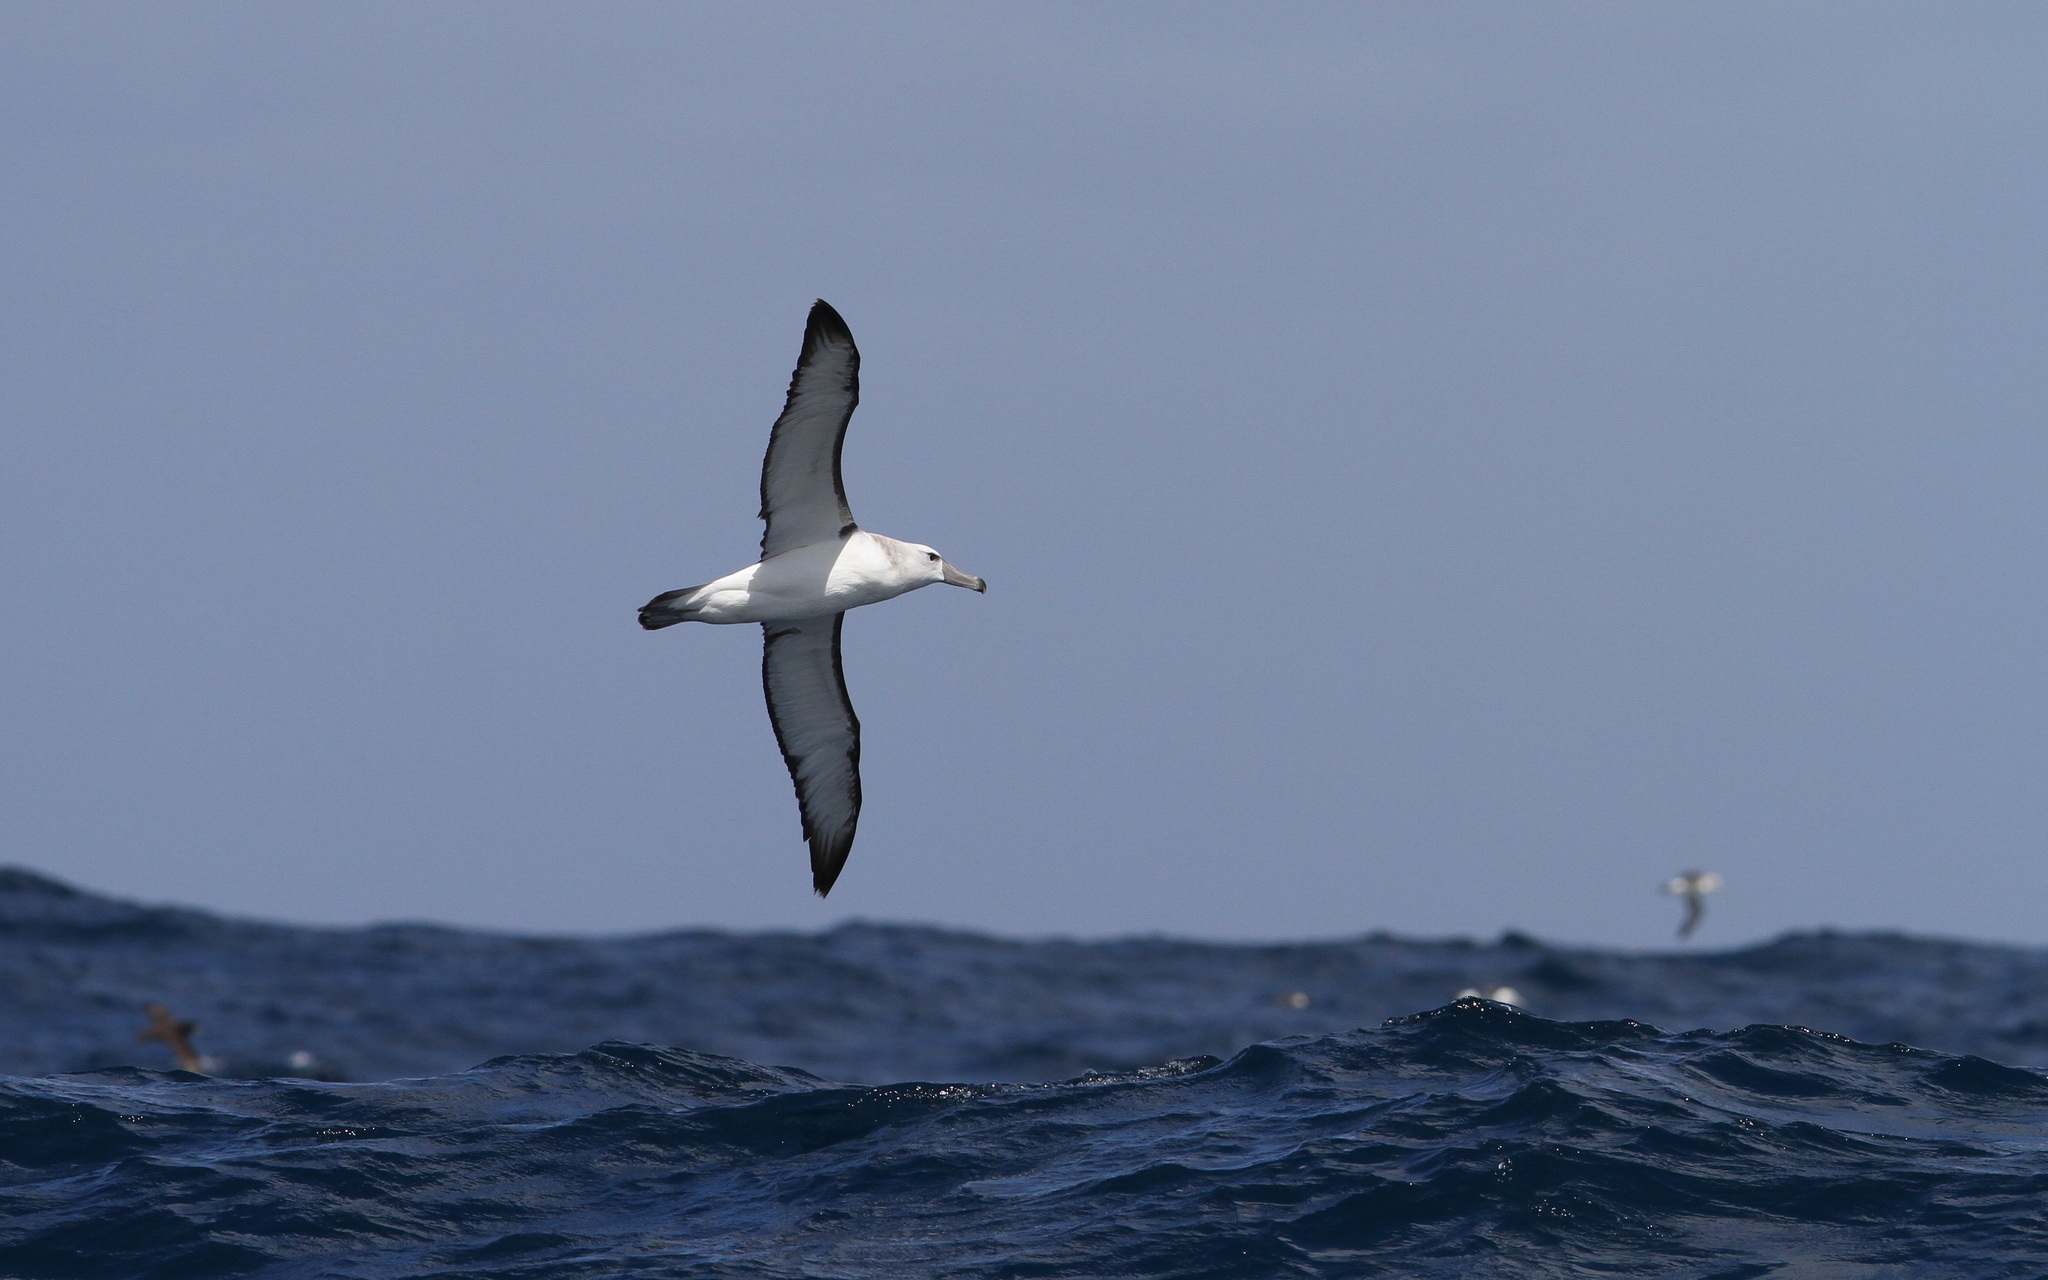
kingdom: Animalia
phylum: Chordata
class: Aves
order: Procellariiformes
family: Diomedeidae
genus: Thalassarche
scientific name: Thalassarche cauta
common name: Shy albatross
